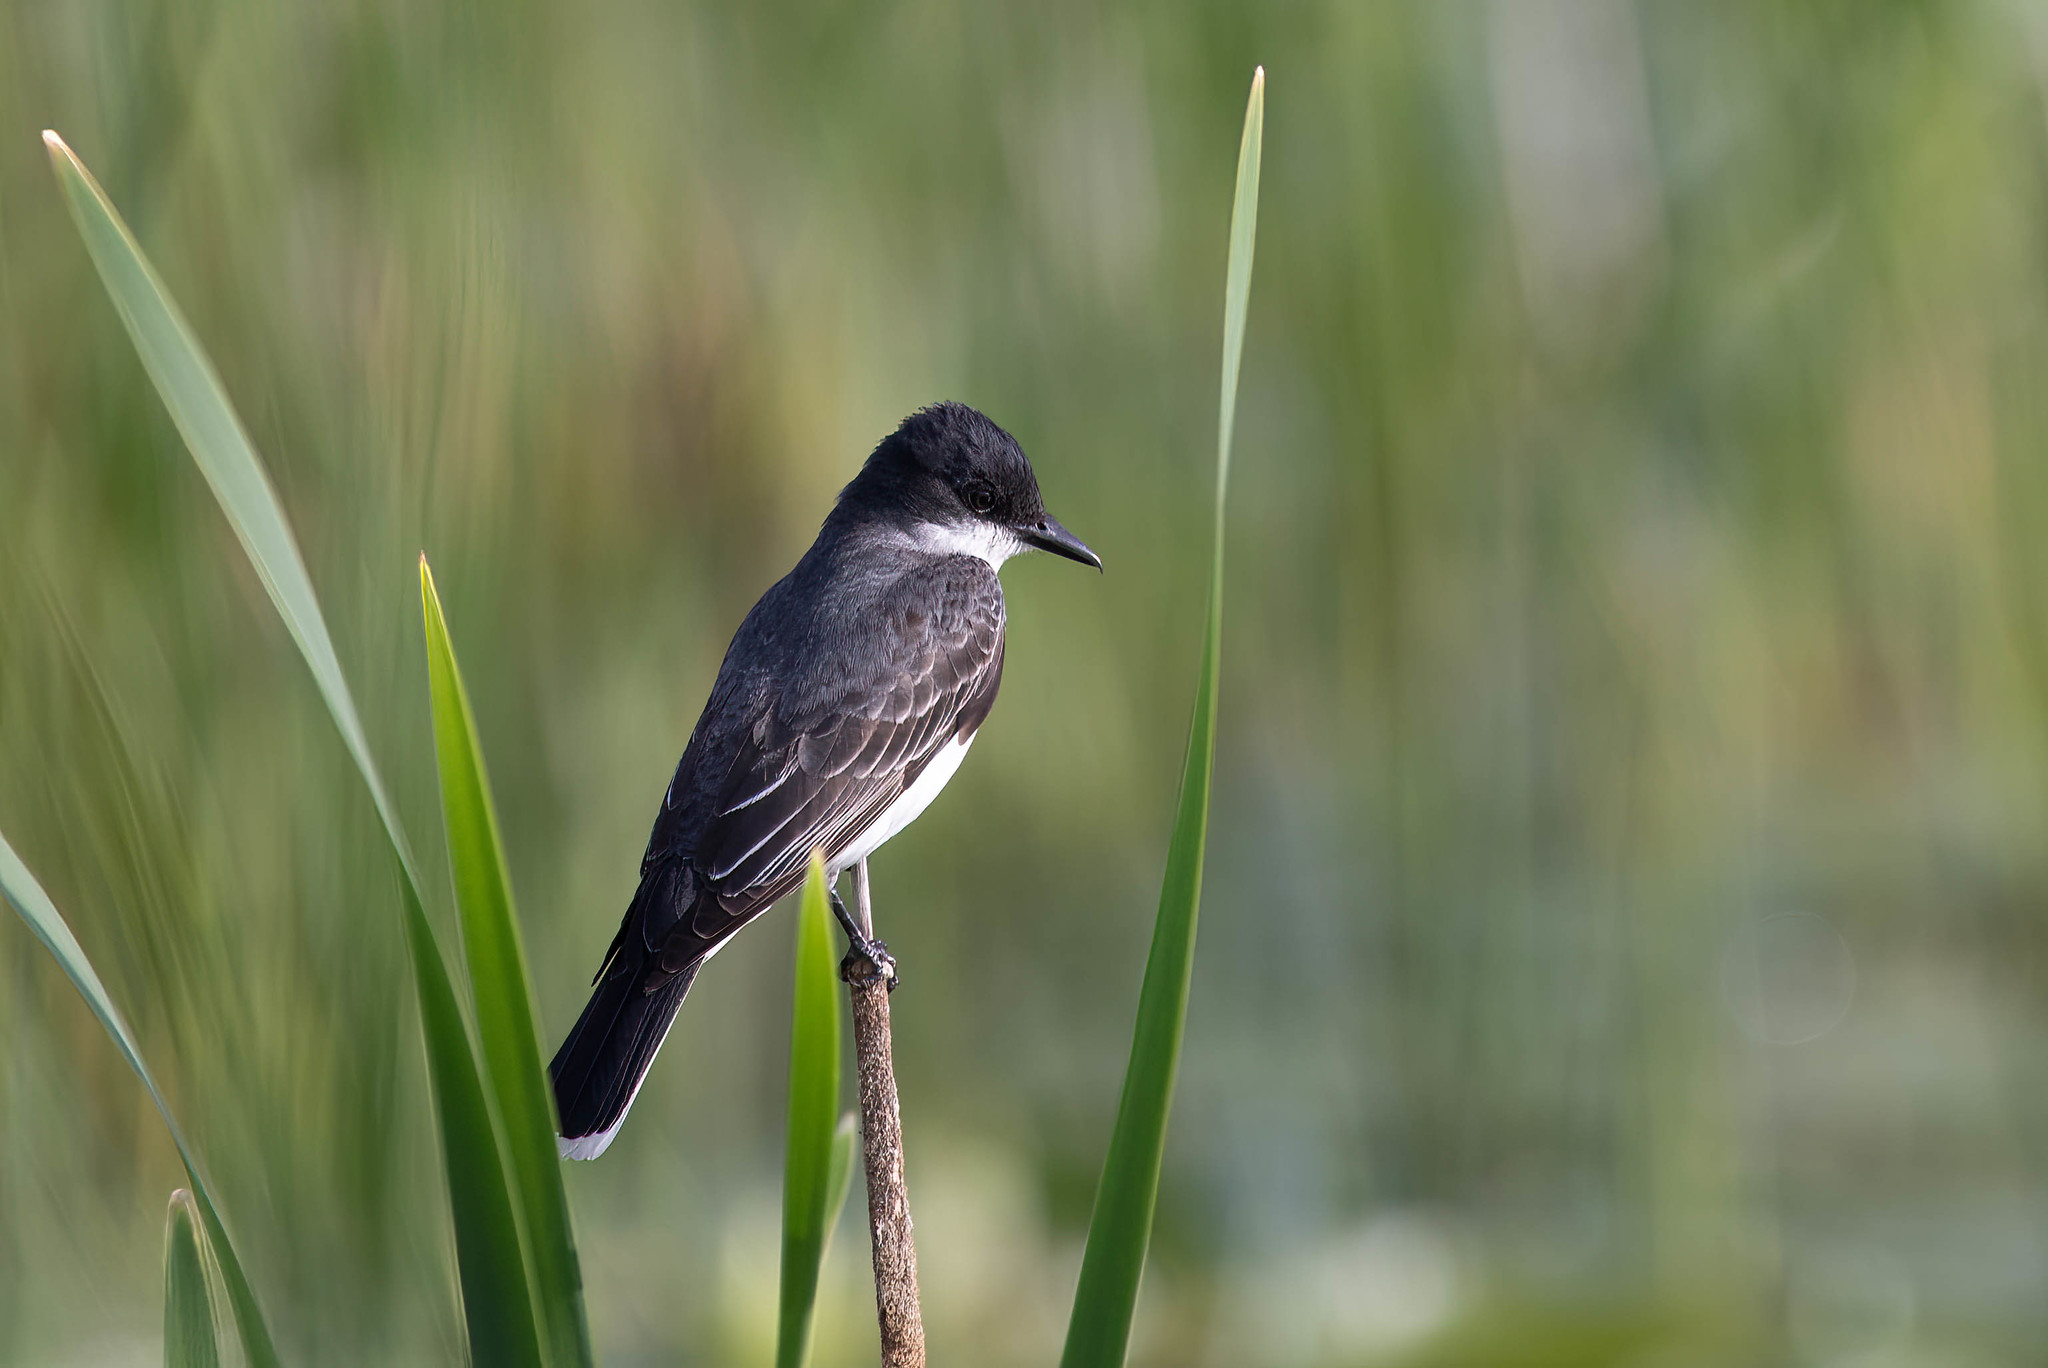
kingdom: Animalia
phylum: Chordata
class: Aves
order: Passeriformes
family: Tyrannidae
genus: Tyrannus
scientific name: Tyrannus tyrannus
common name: Eastern kingbird
